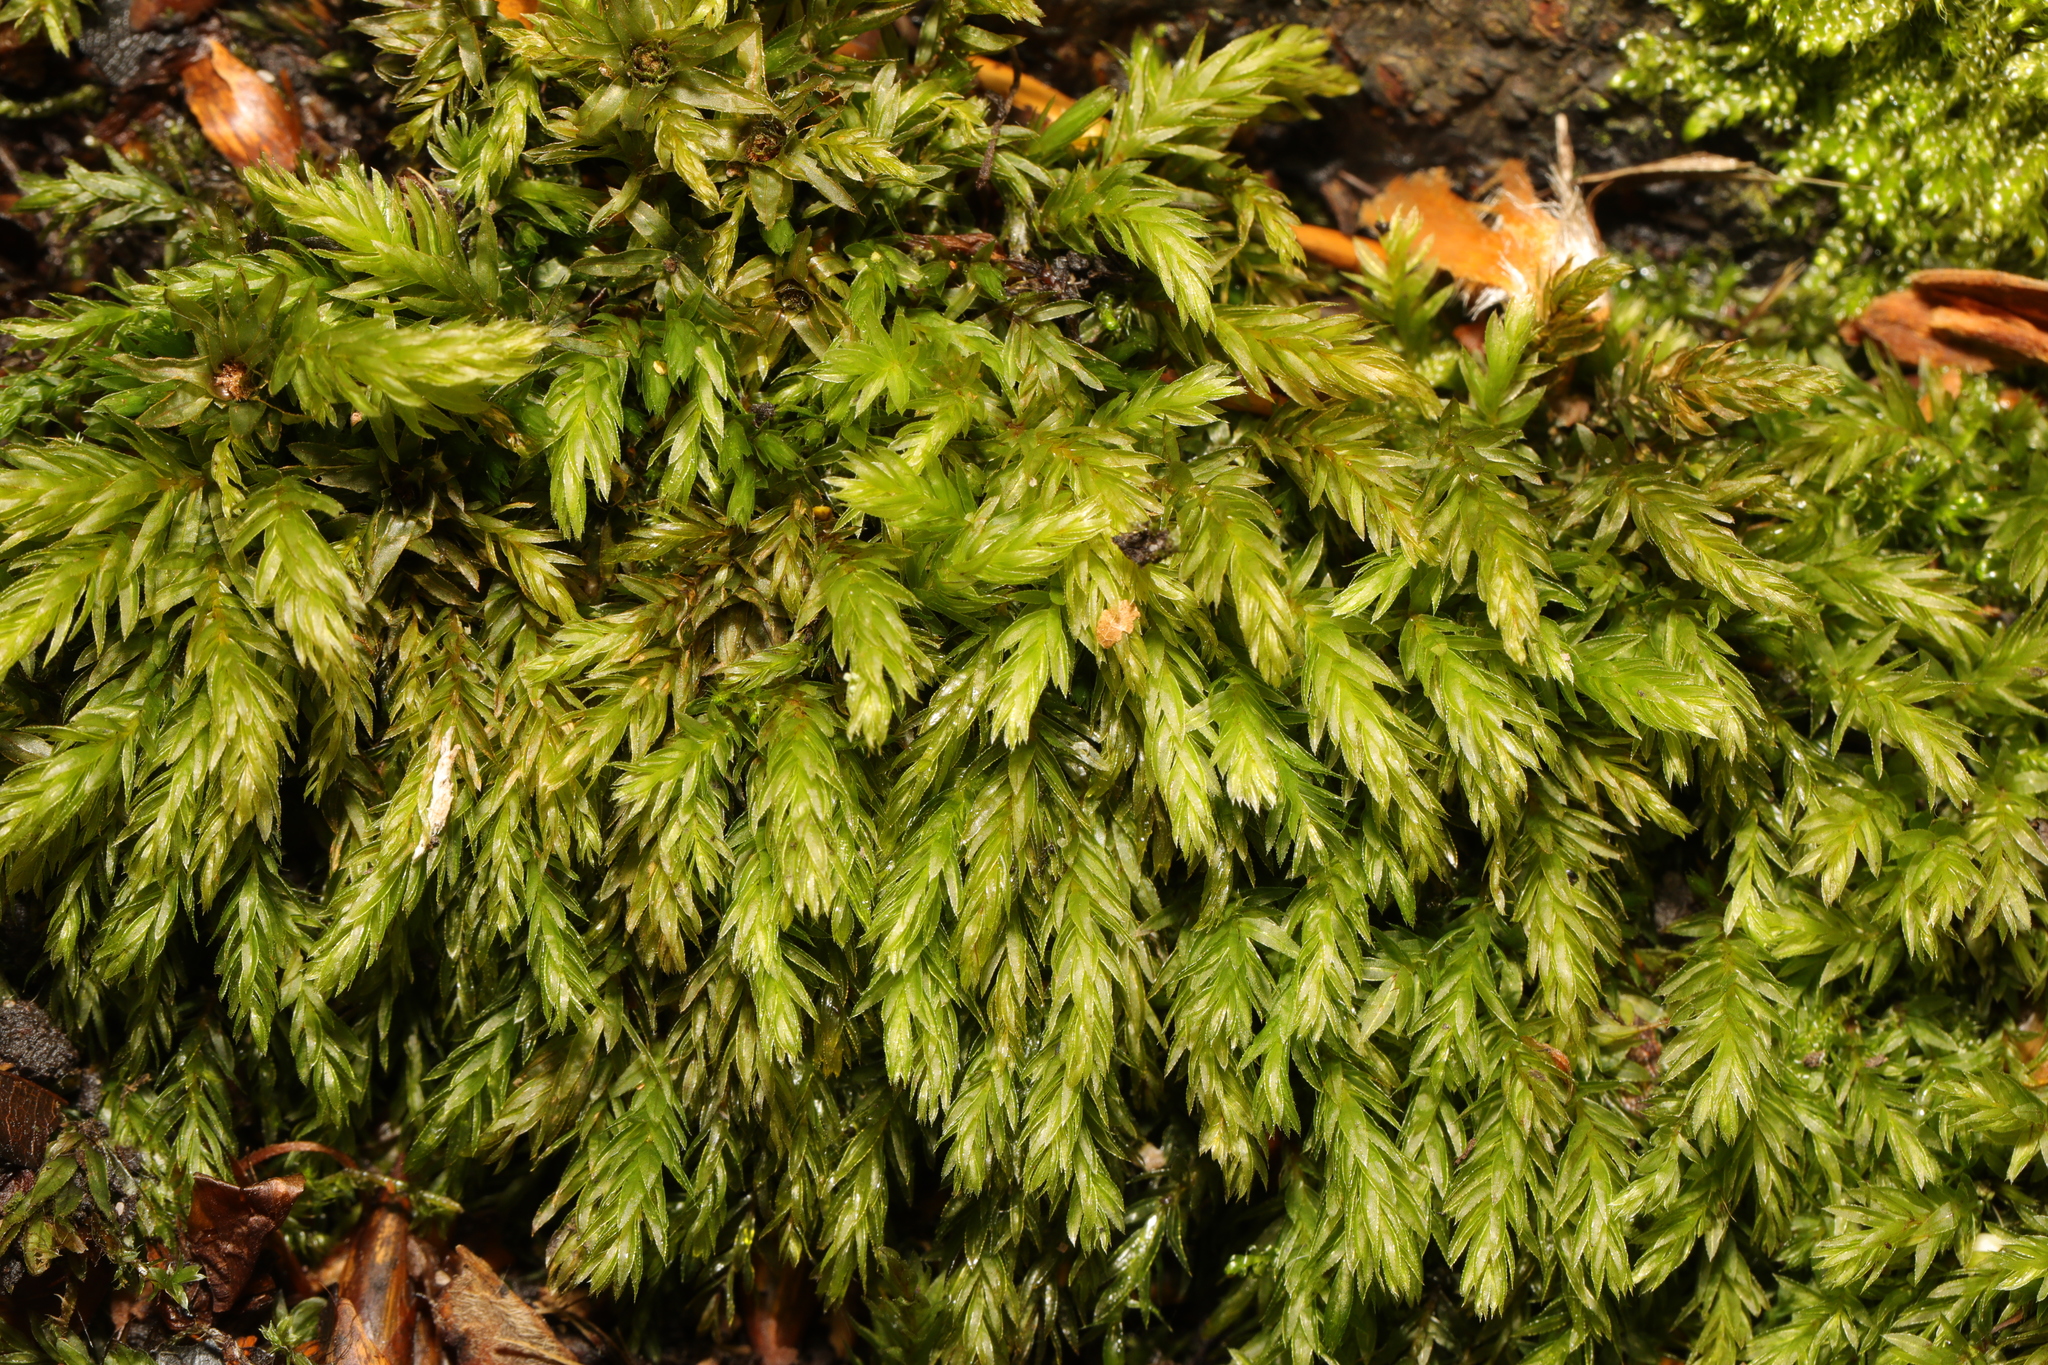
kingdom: Plantae
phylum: Bryophyta
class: Bryopsida
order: Bryales
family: Mniaceae
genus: Mnium
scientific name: Mnium hornum
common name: Swan's-neck leafy moss
